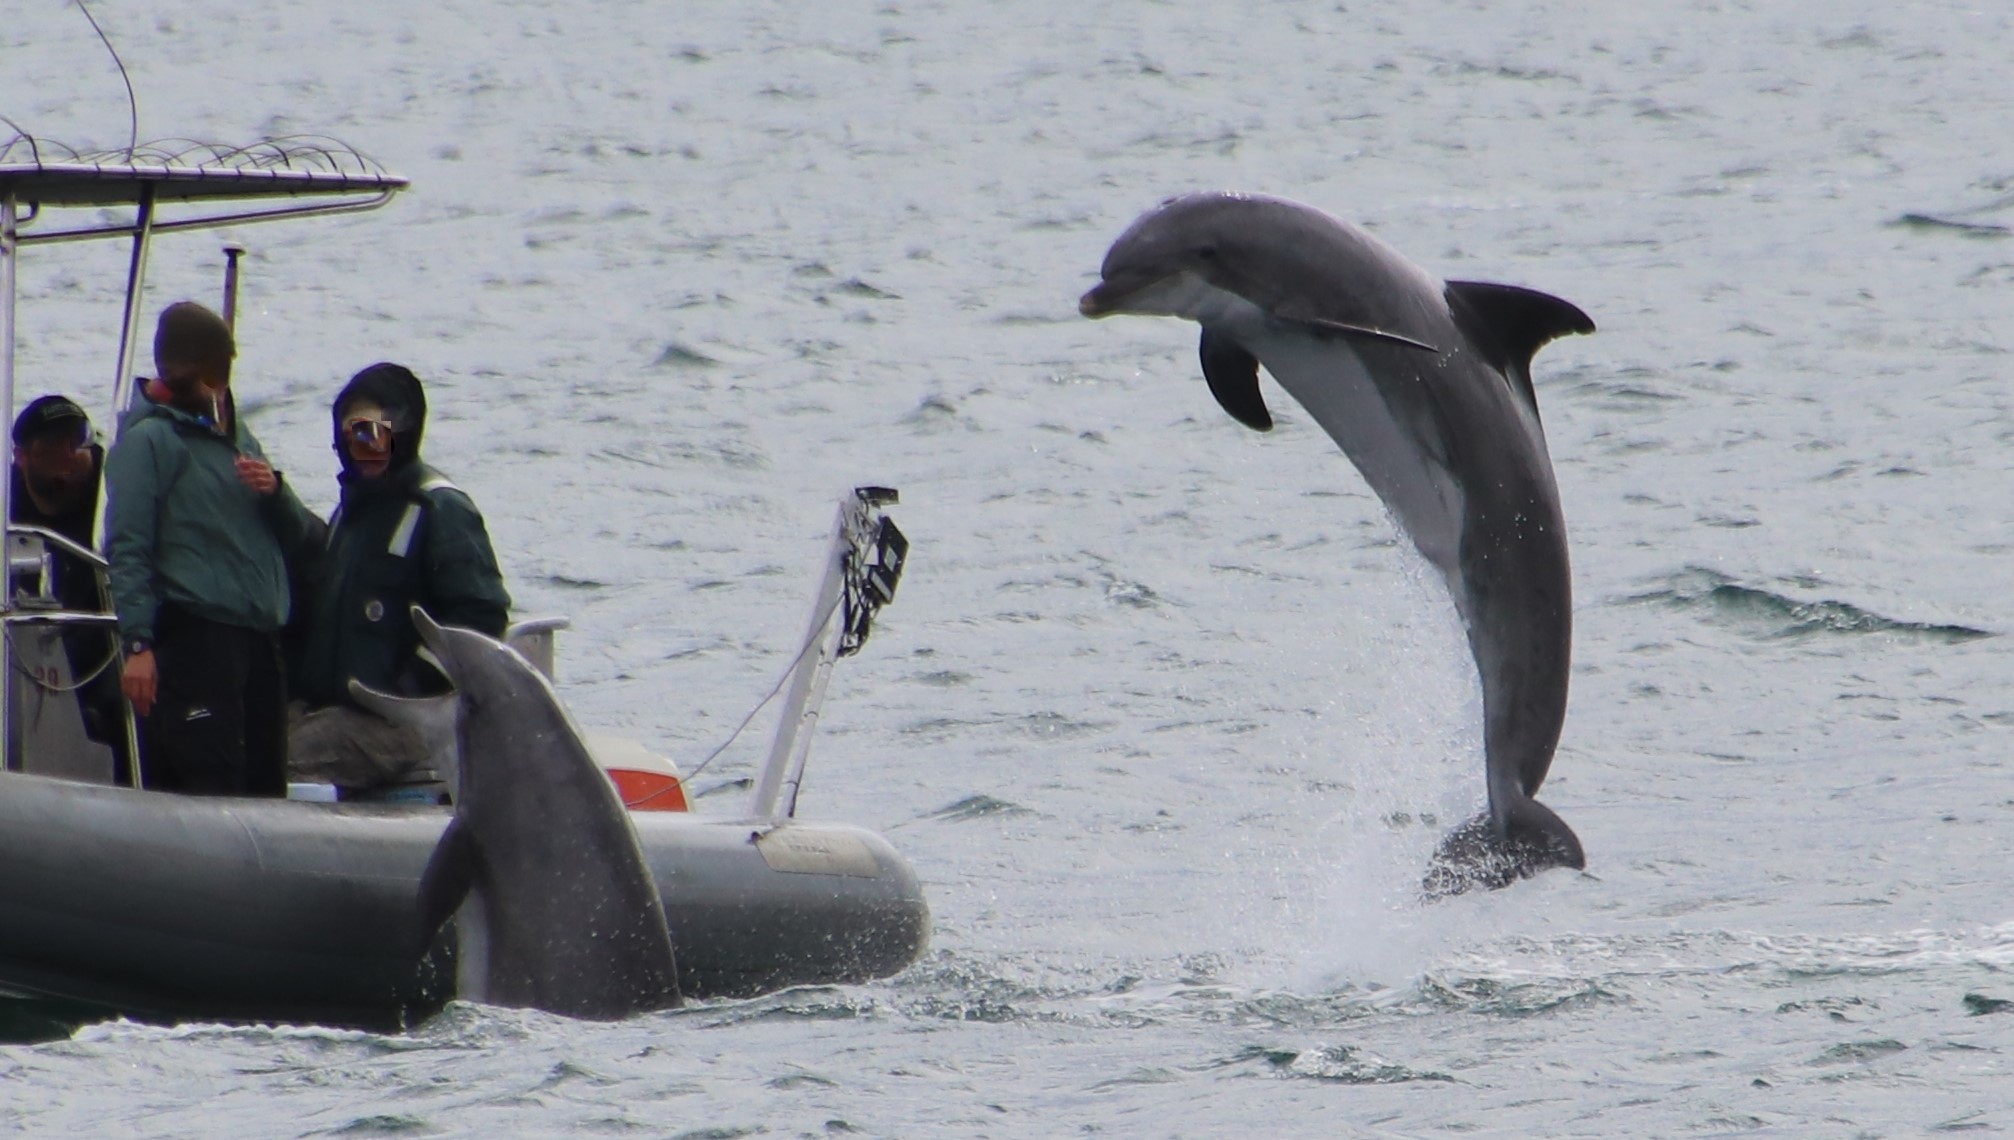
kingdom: Animalia
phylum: Chordata
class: Mammalia
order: Cetacea
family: Delphinidae
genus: Tursiops
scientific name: Tursiops truncatus
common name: Bottlenose dolphin
